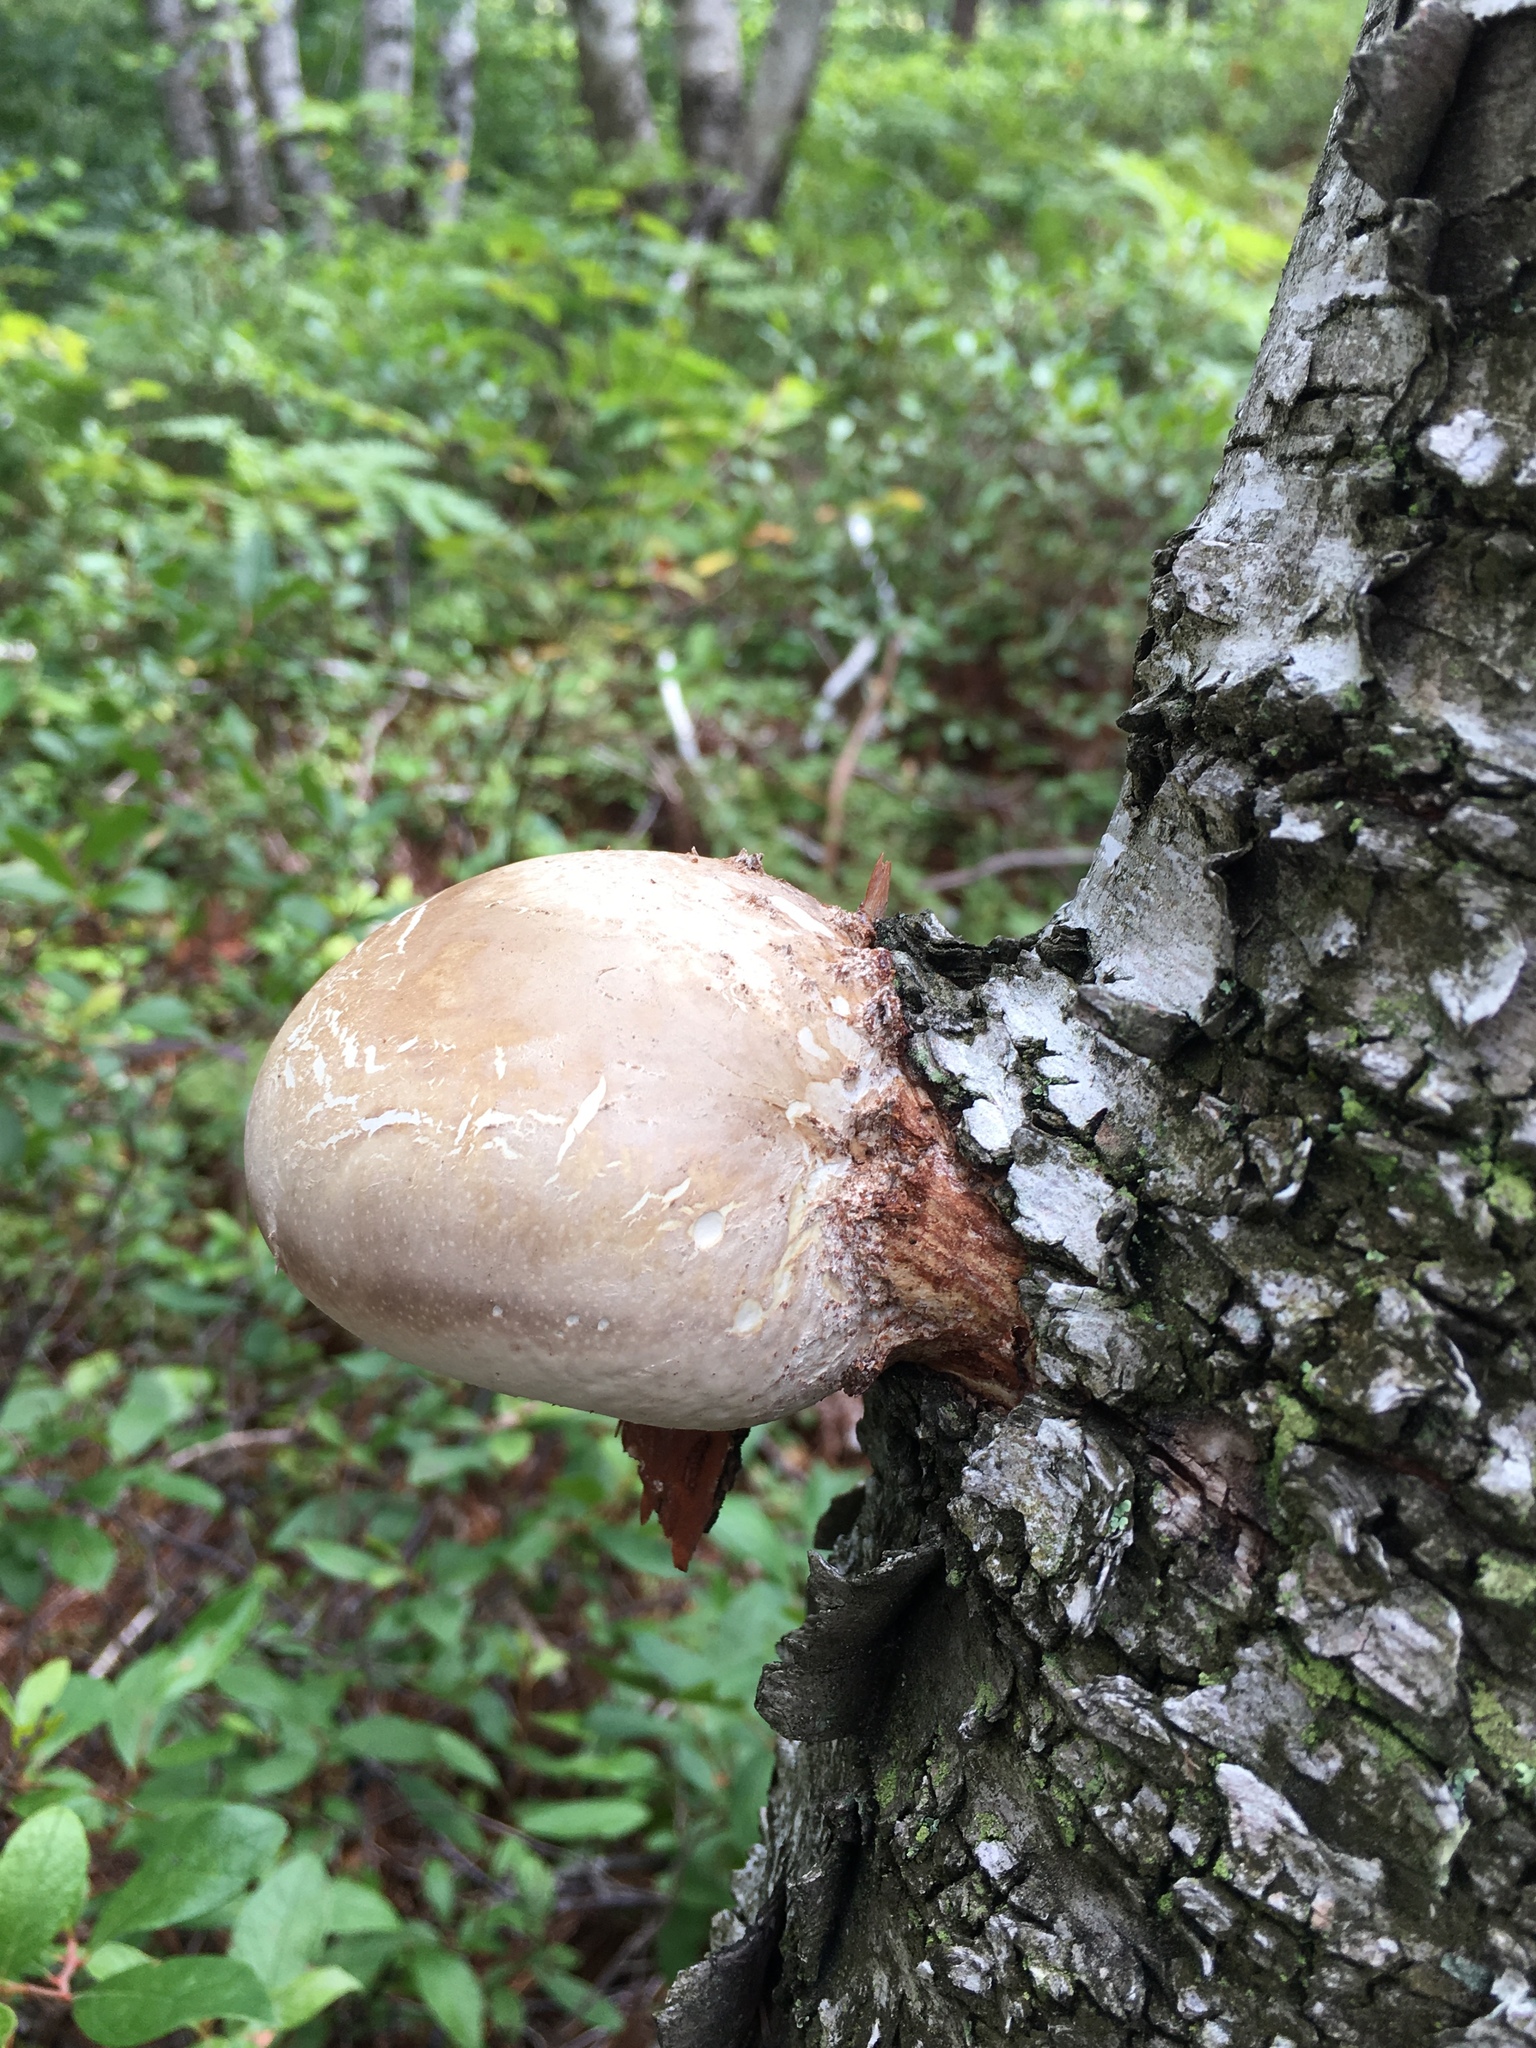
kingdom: Fungi
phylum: Basidiomycota
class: Agaricomycetes
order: Polyporales
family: Fomitopsidaceae
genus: Fomitopsis
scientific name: Fomitopsis betulina
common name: Birch polypore
